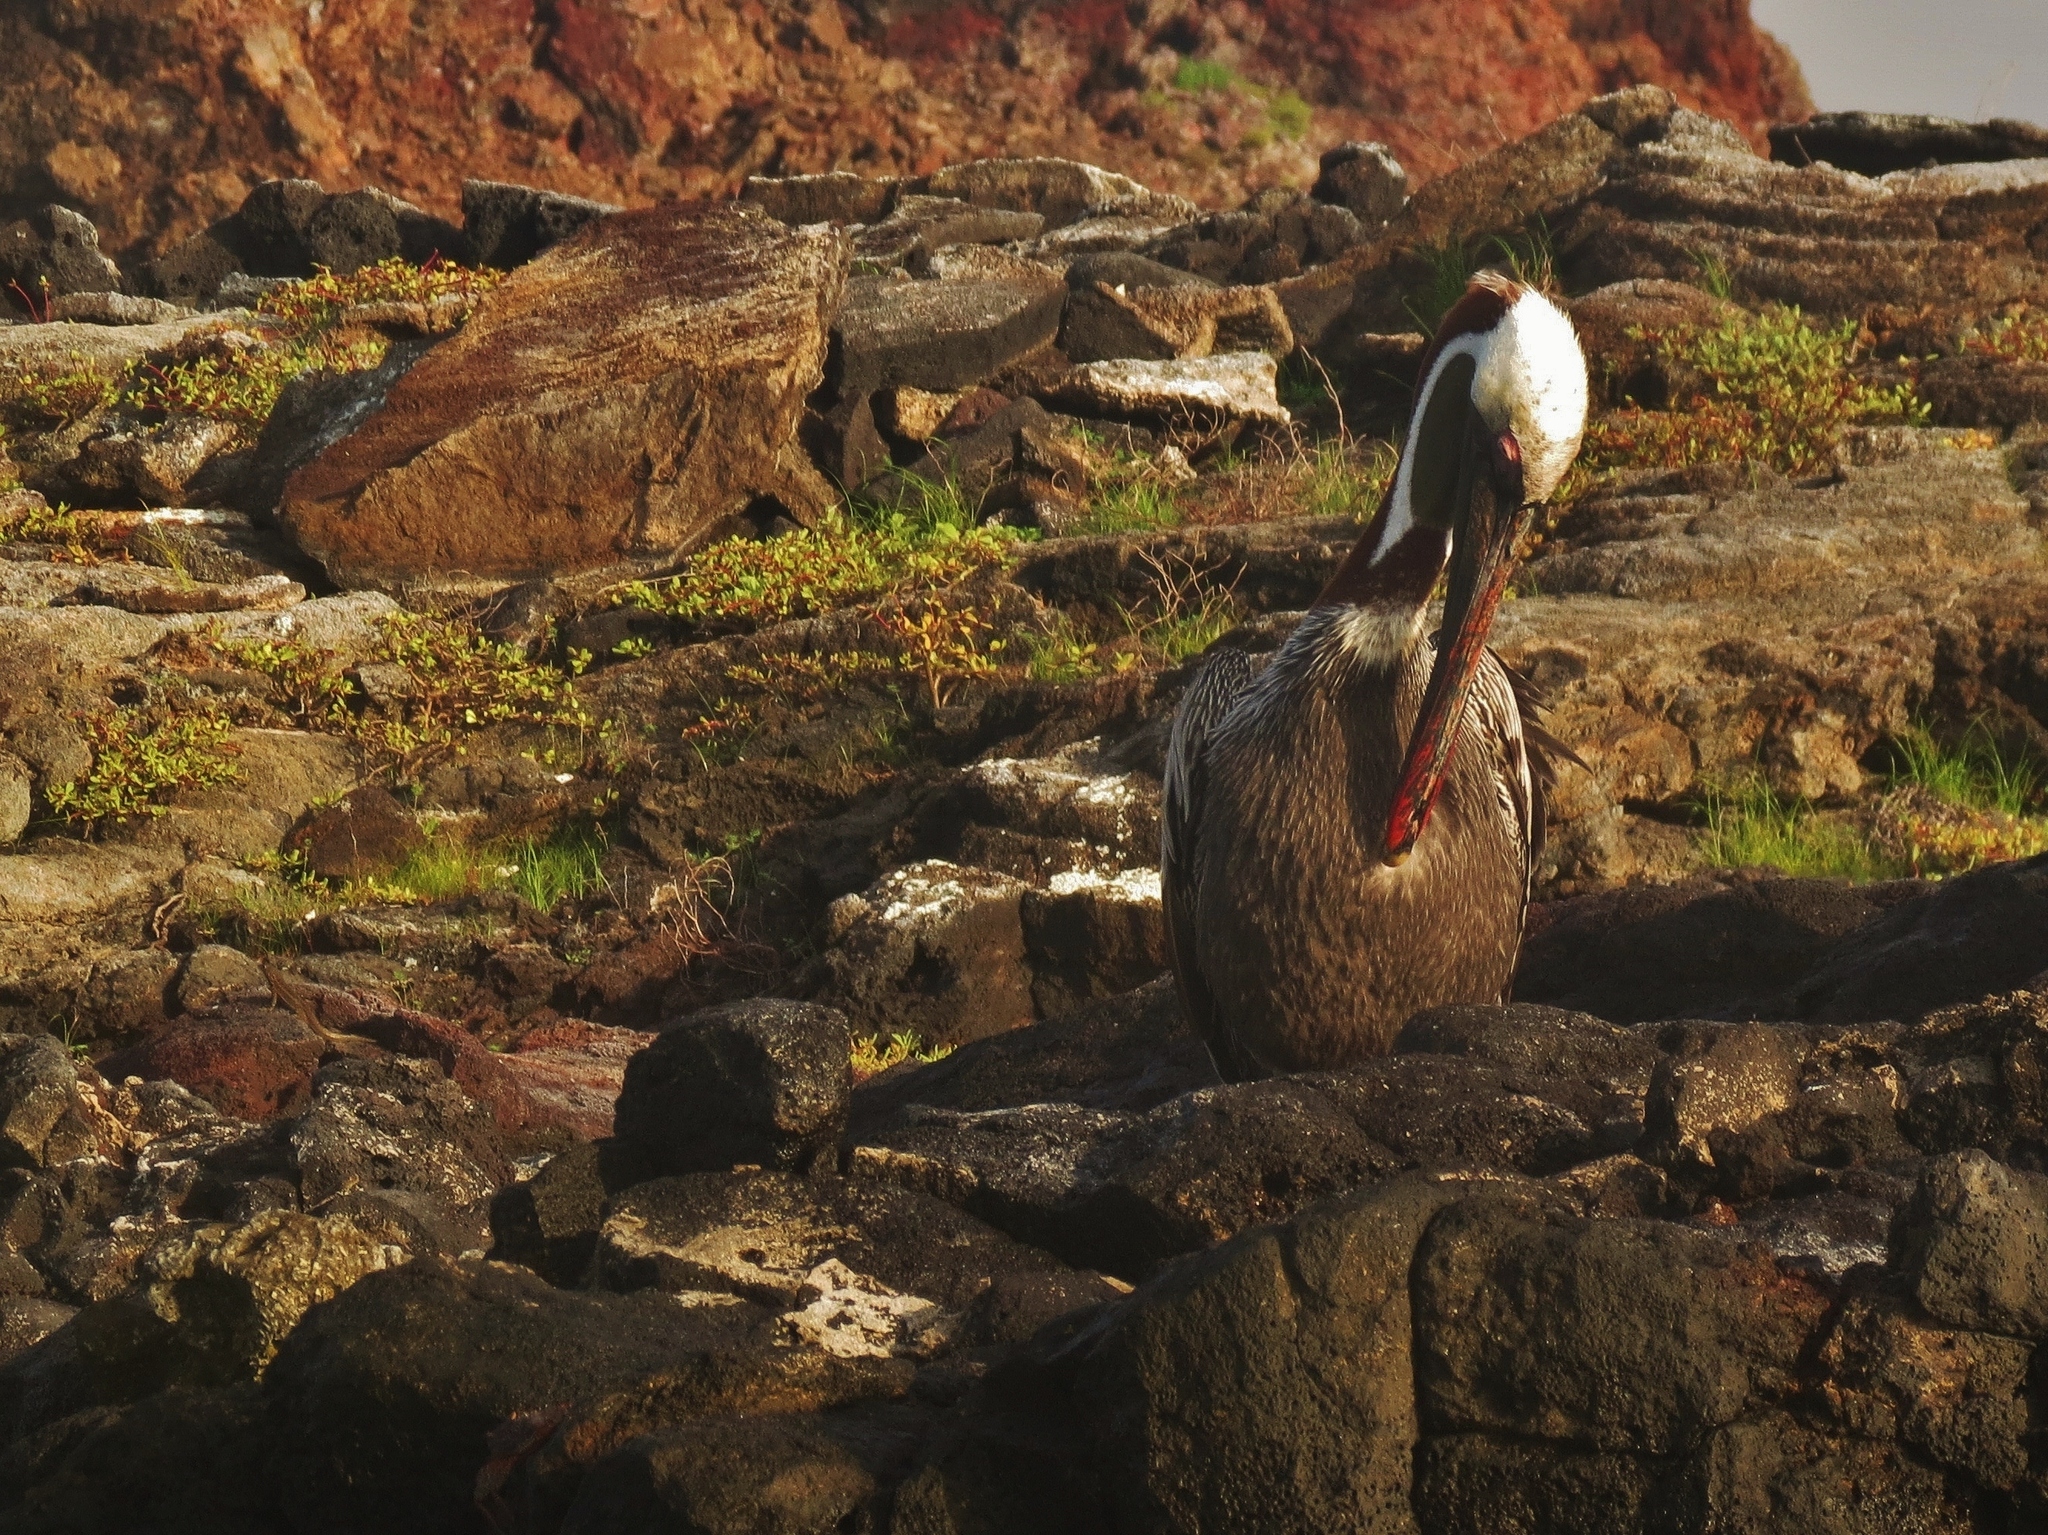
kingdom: Animalia
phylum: Chordata
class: Aves
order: Pelecaniformes
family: Pelecanidae
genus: Pelecanus
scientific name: Pelecanus occidentalis
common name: Brown pelican
